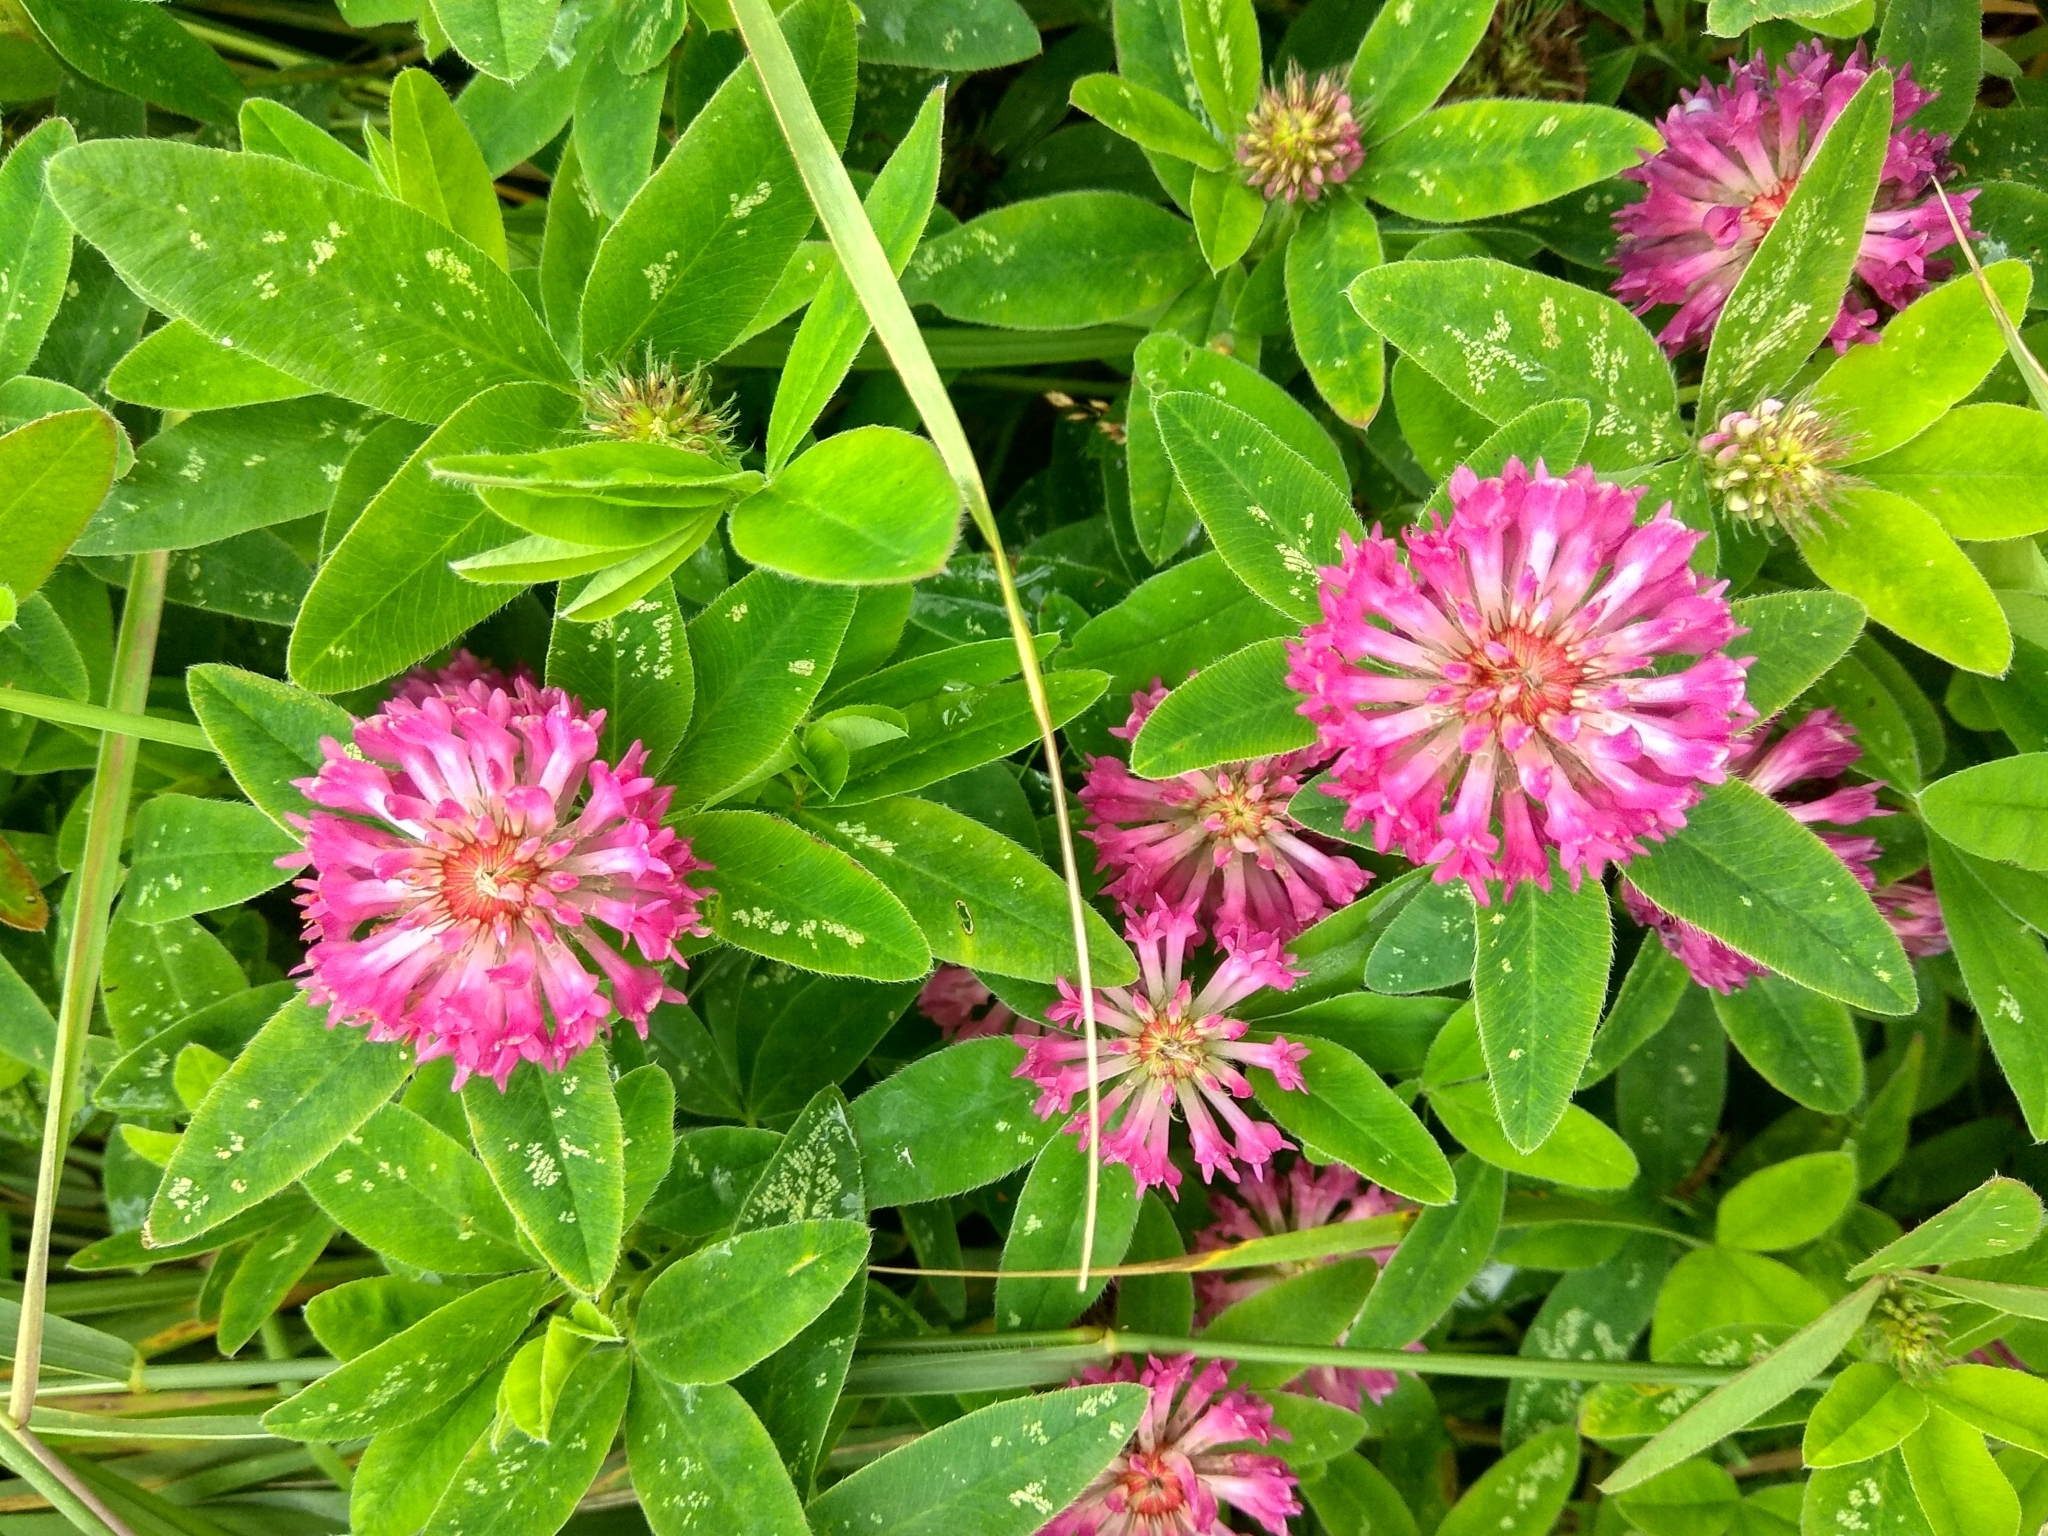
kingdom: Plantae
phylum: Tracheophyta
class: Magnoliopsida
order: Fabales
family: Fabaceae
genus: Trifolium
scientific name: Trifolium medium
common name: Zigzag clover
